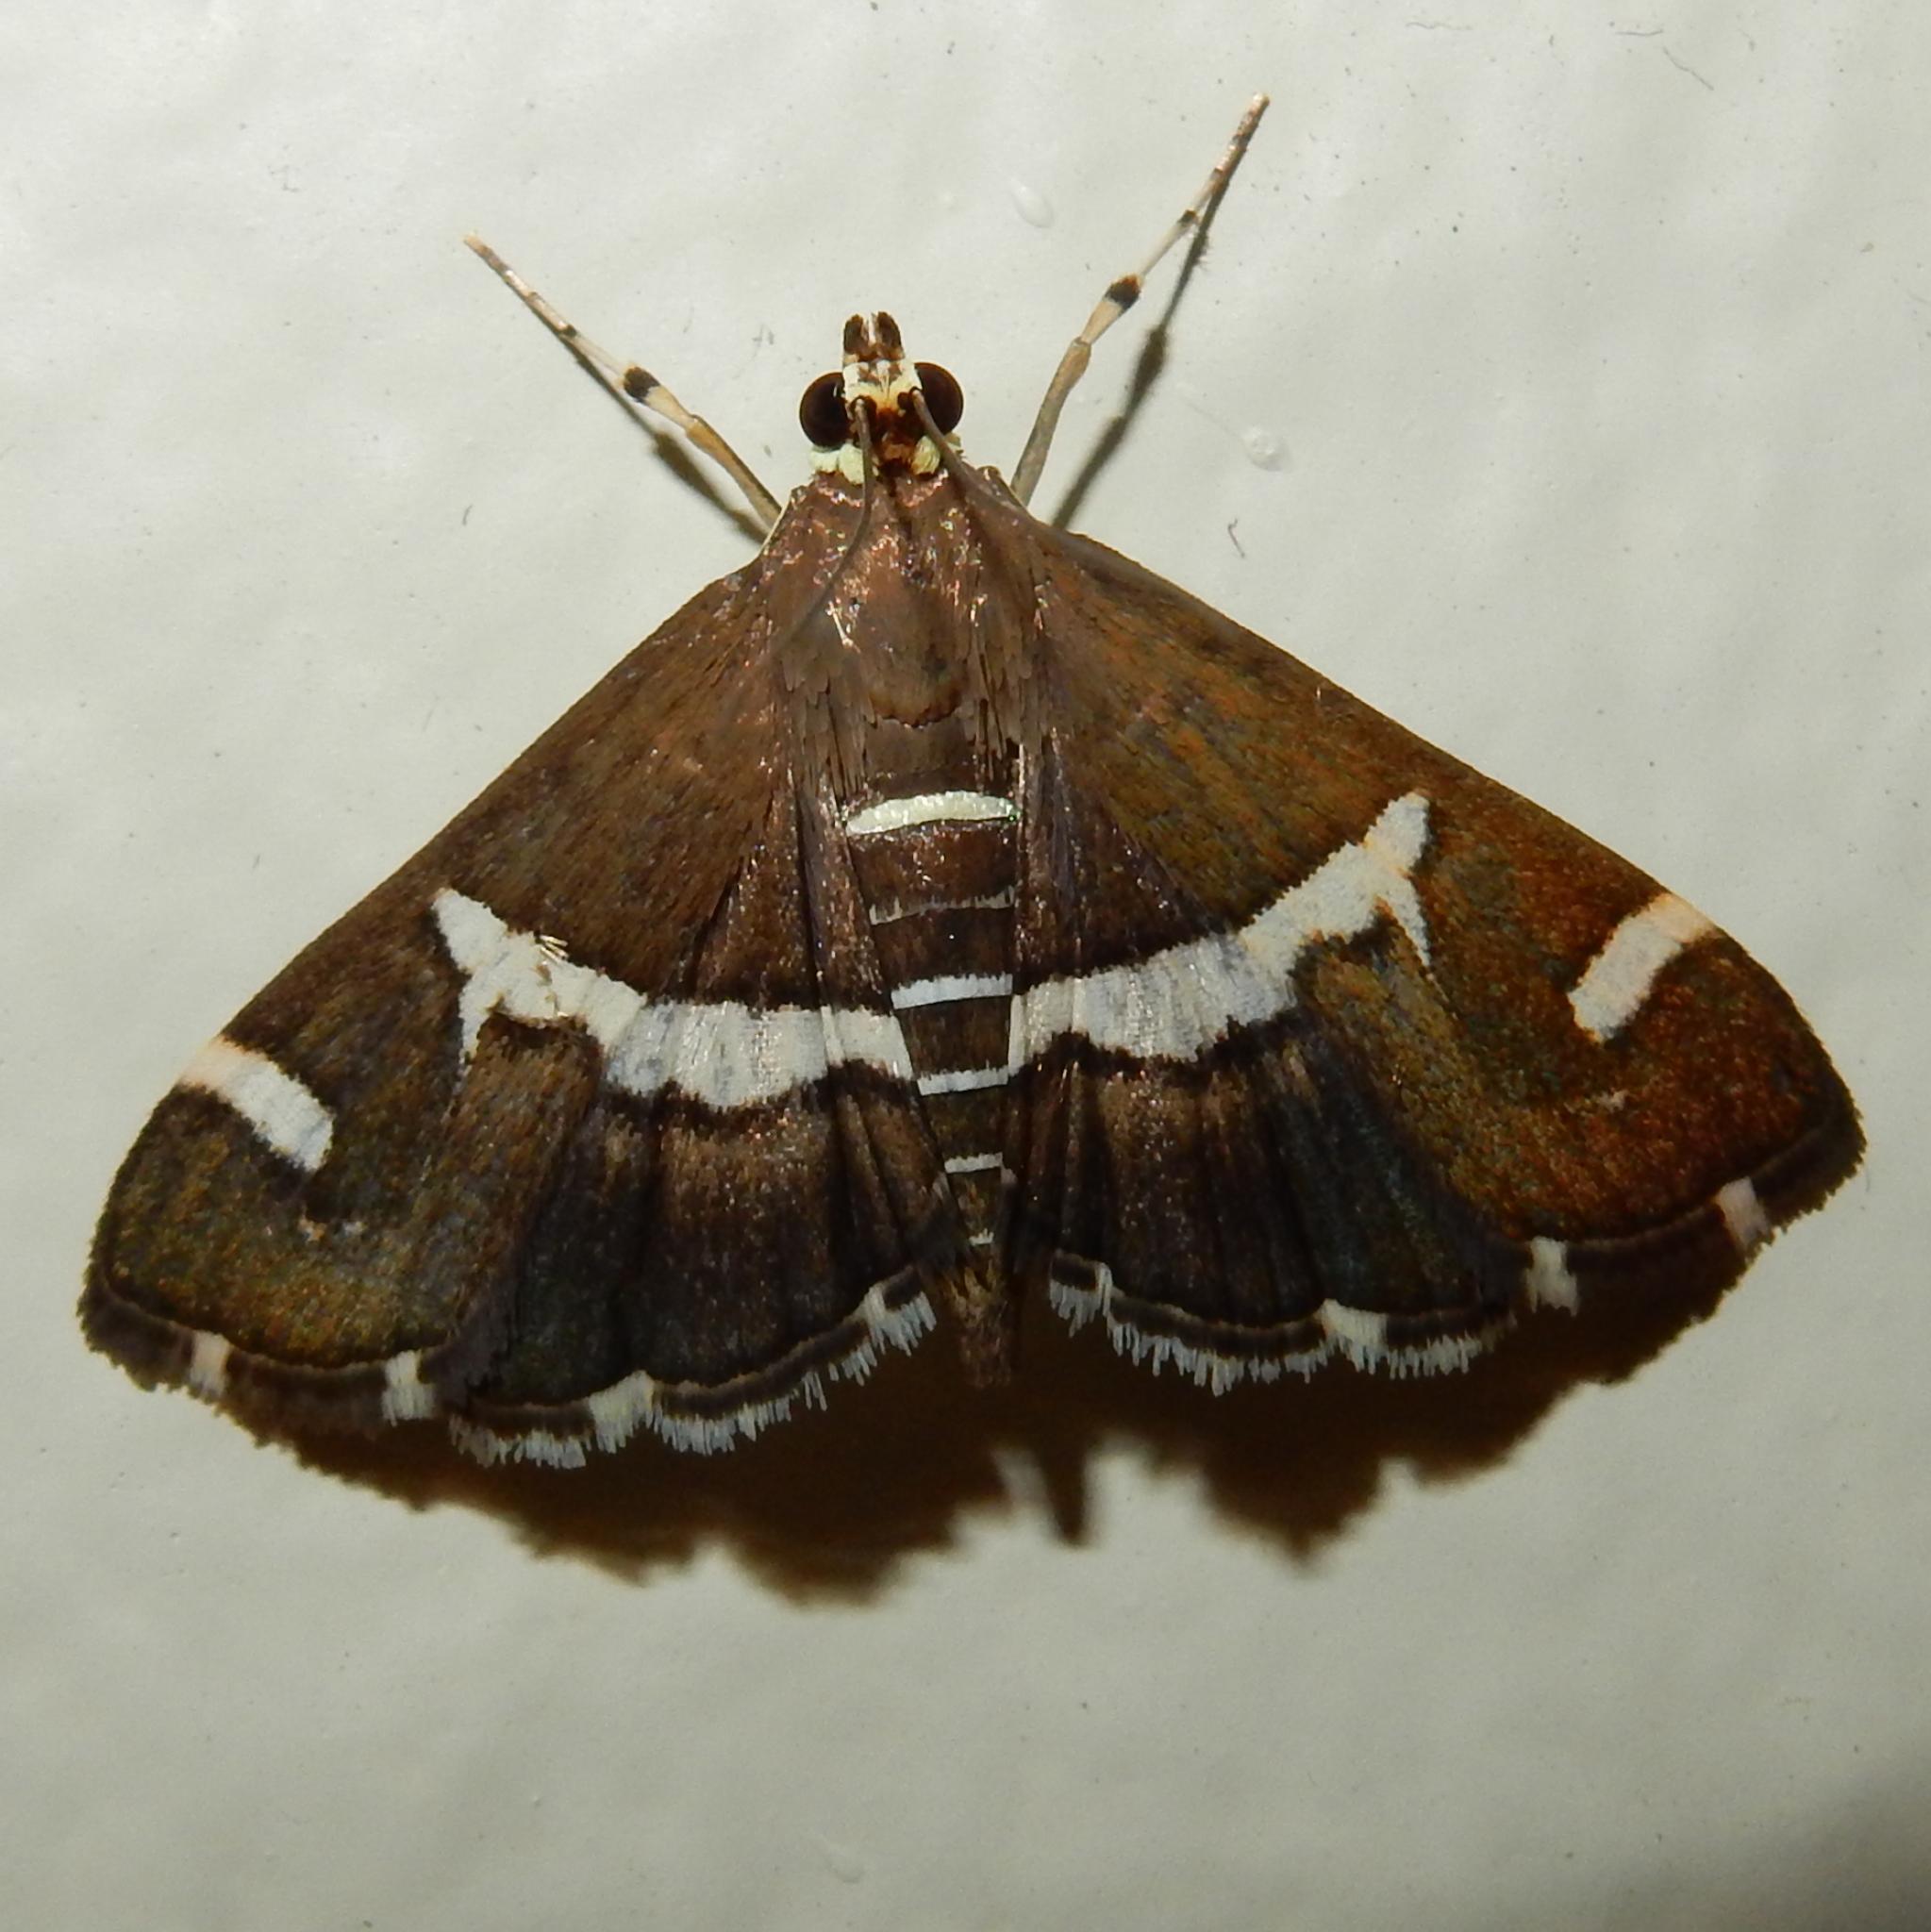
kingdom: Animalia
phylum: Arthropoda
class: Insecta
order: Lepidoptera
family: Crambidae
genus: Spoladea
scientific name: Spoladea recurvalis
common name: Beet webworm moth
